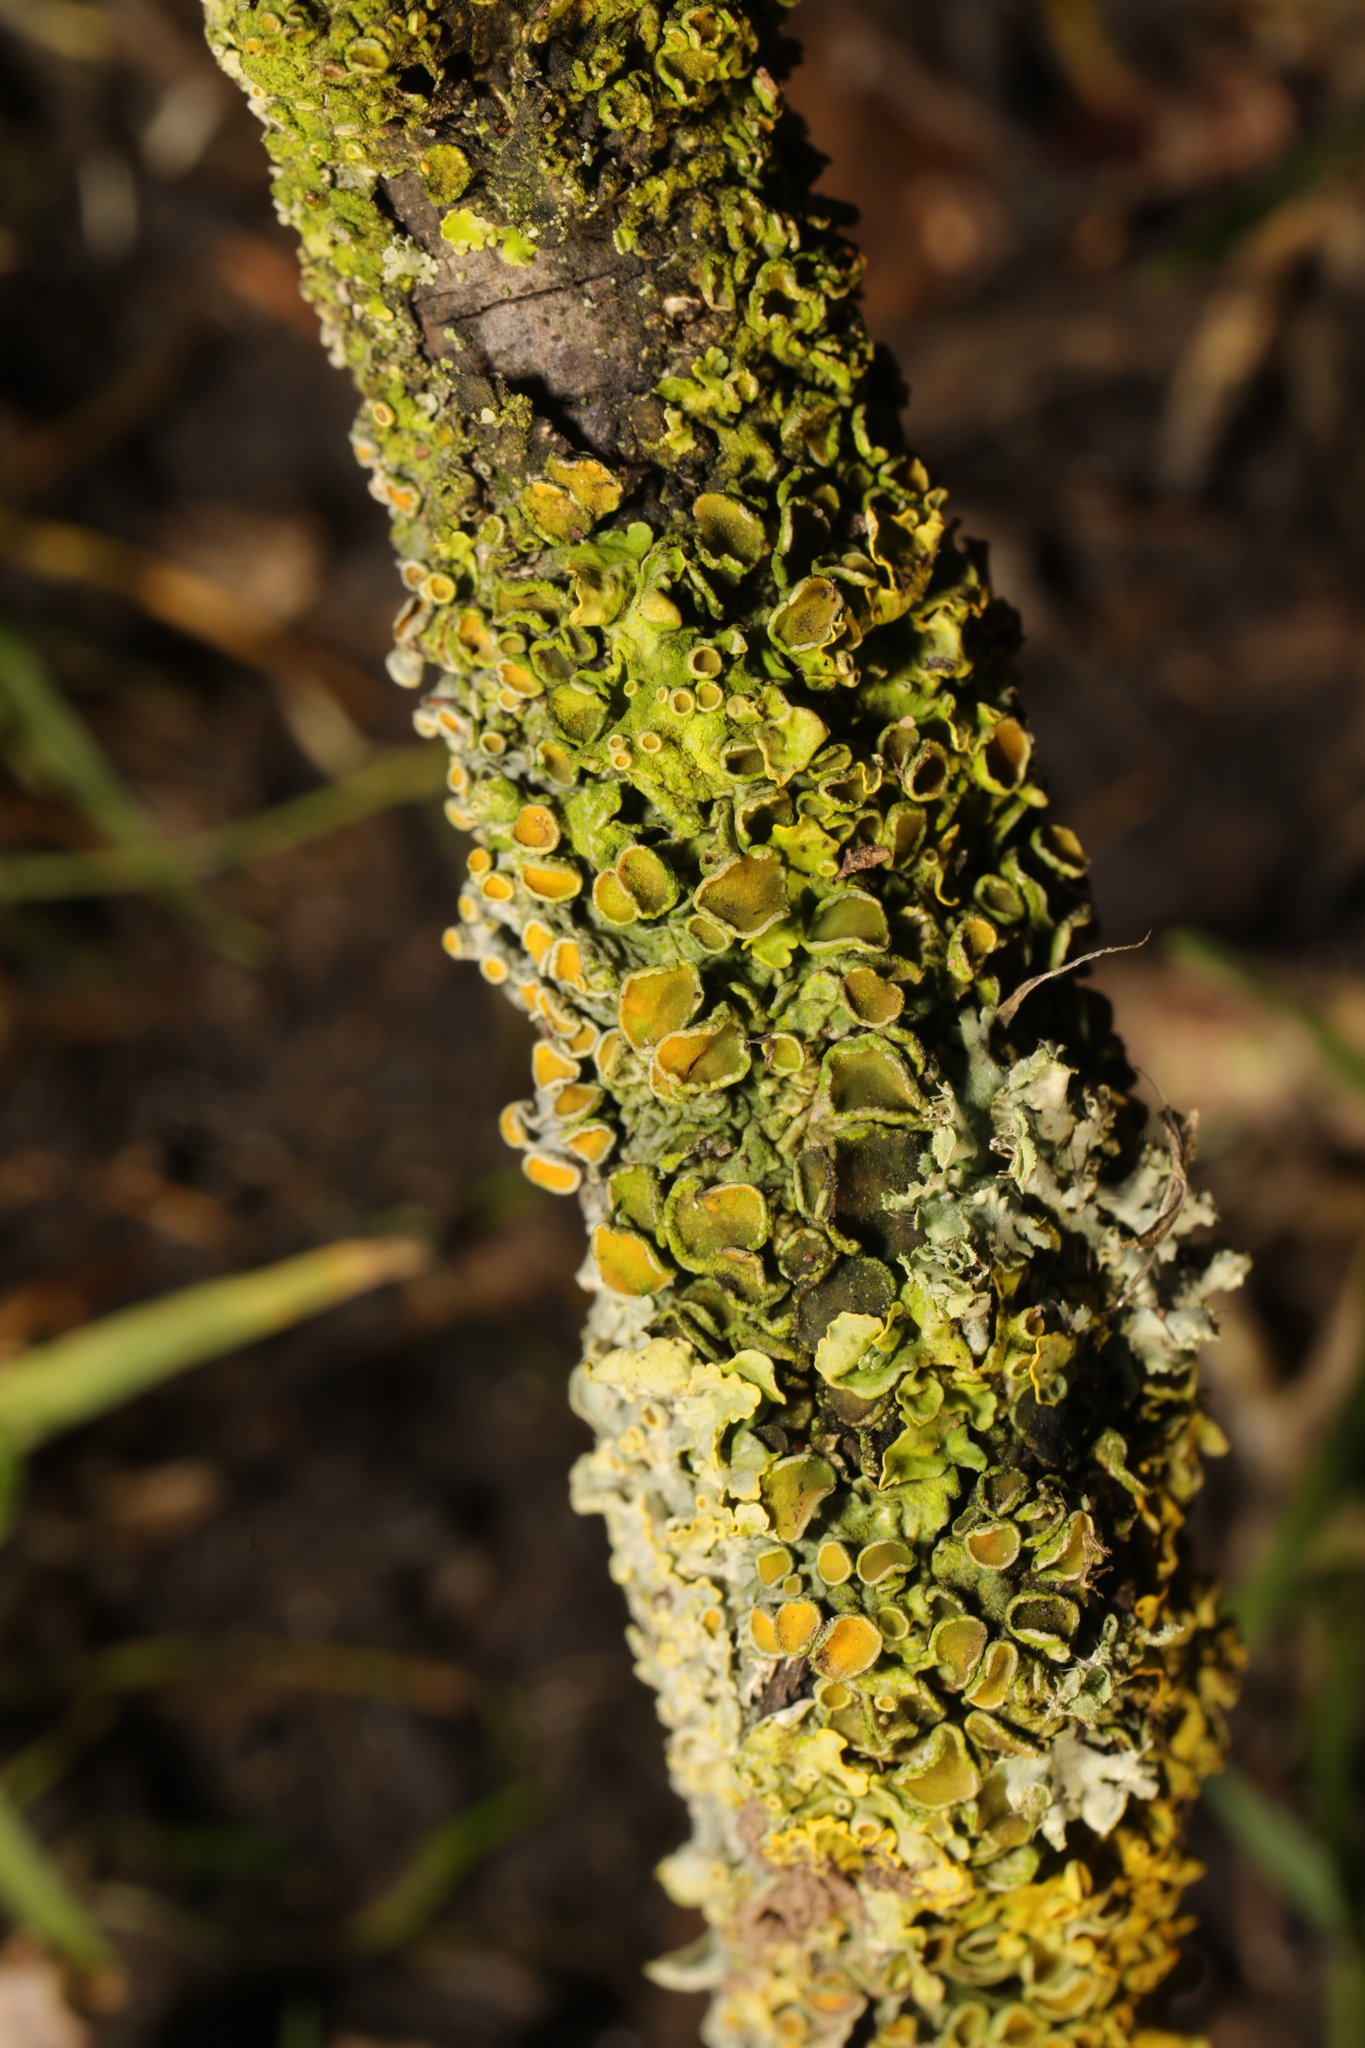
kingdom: Fungi
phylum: Ascomycota
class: Lecanoromycetes
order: Teloschistales
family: Teloschistaceae
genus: Xanthoria
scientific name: Xanthoria parietina
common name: Common orange lichen
